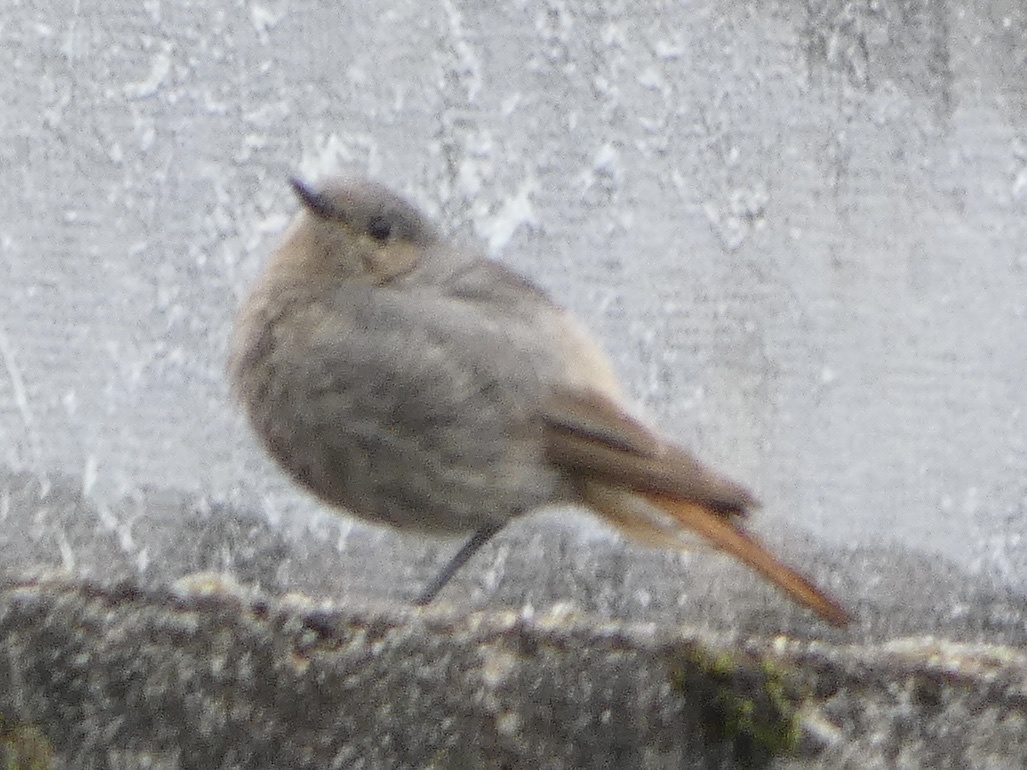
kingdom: Animalia
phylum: Chordata
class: Aves
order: Passeriformes
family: Muscicapidae
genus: Phoenicurus
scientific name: Phoenicurus ochruros
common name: Black redstart
